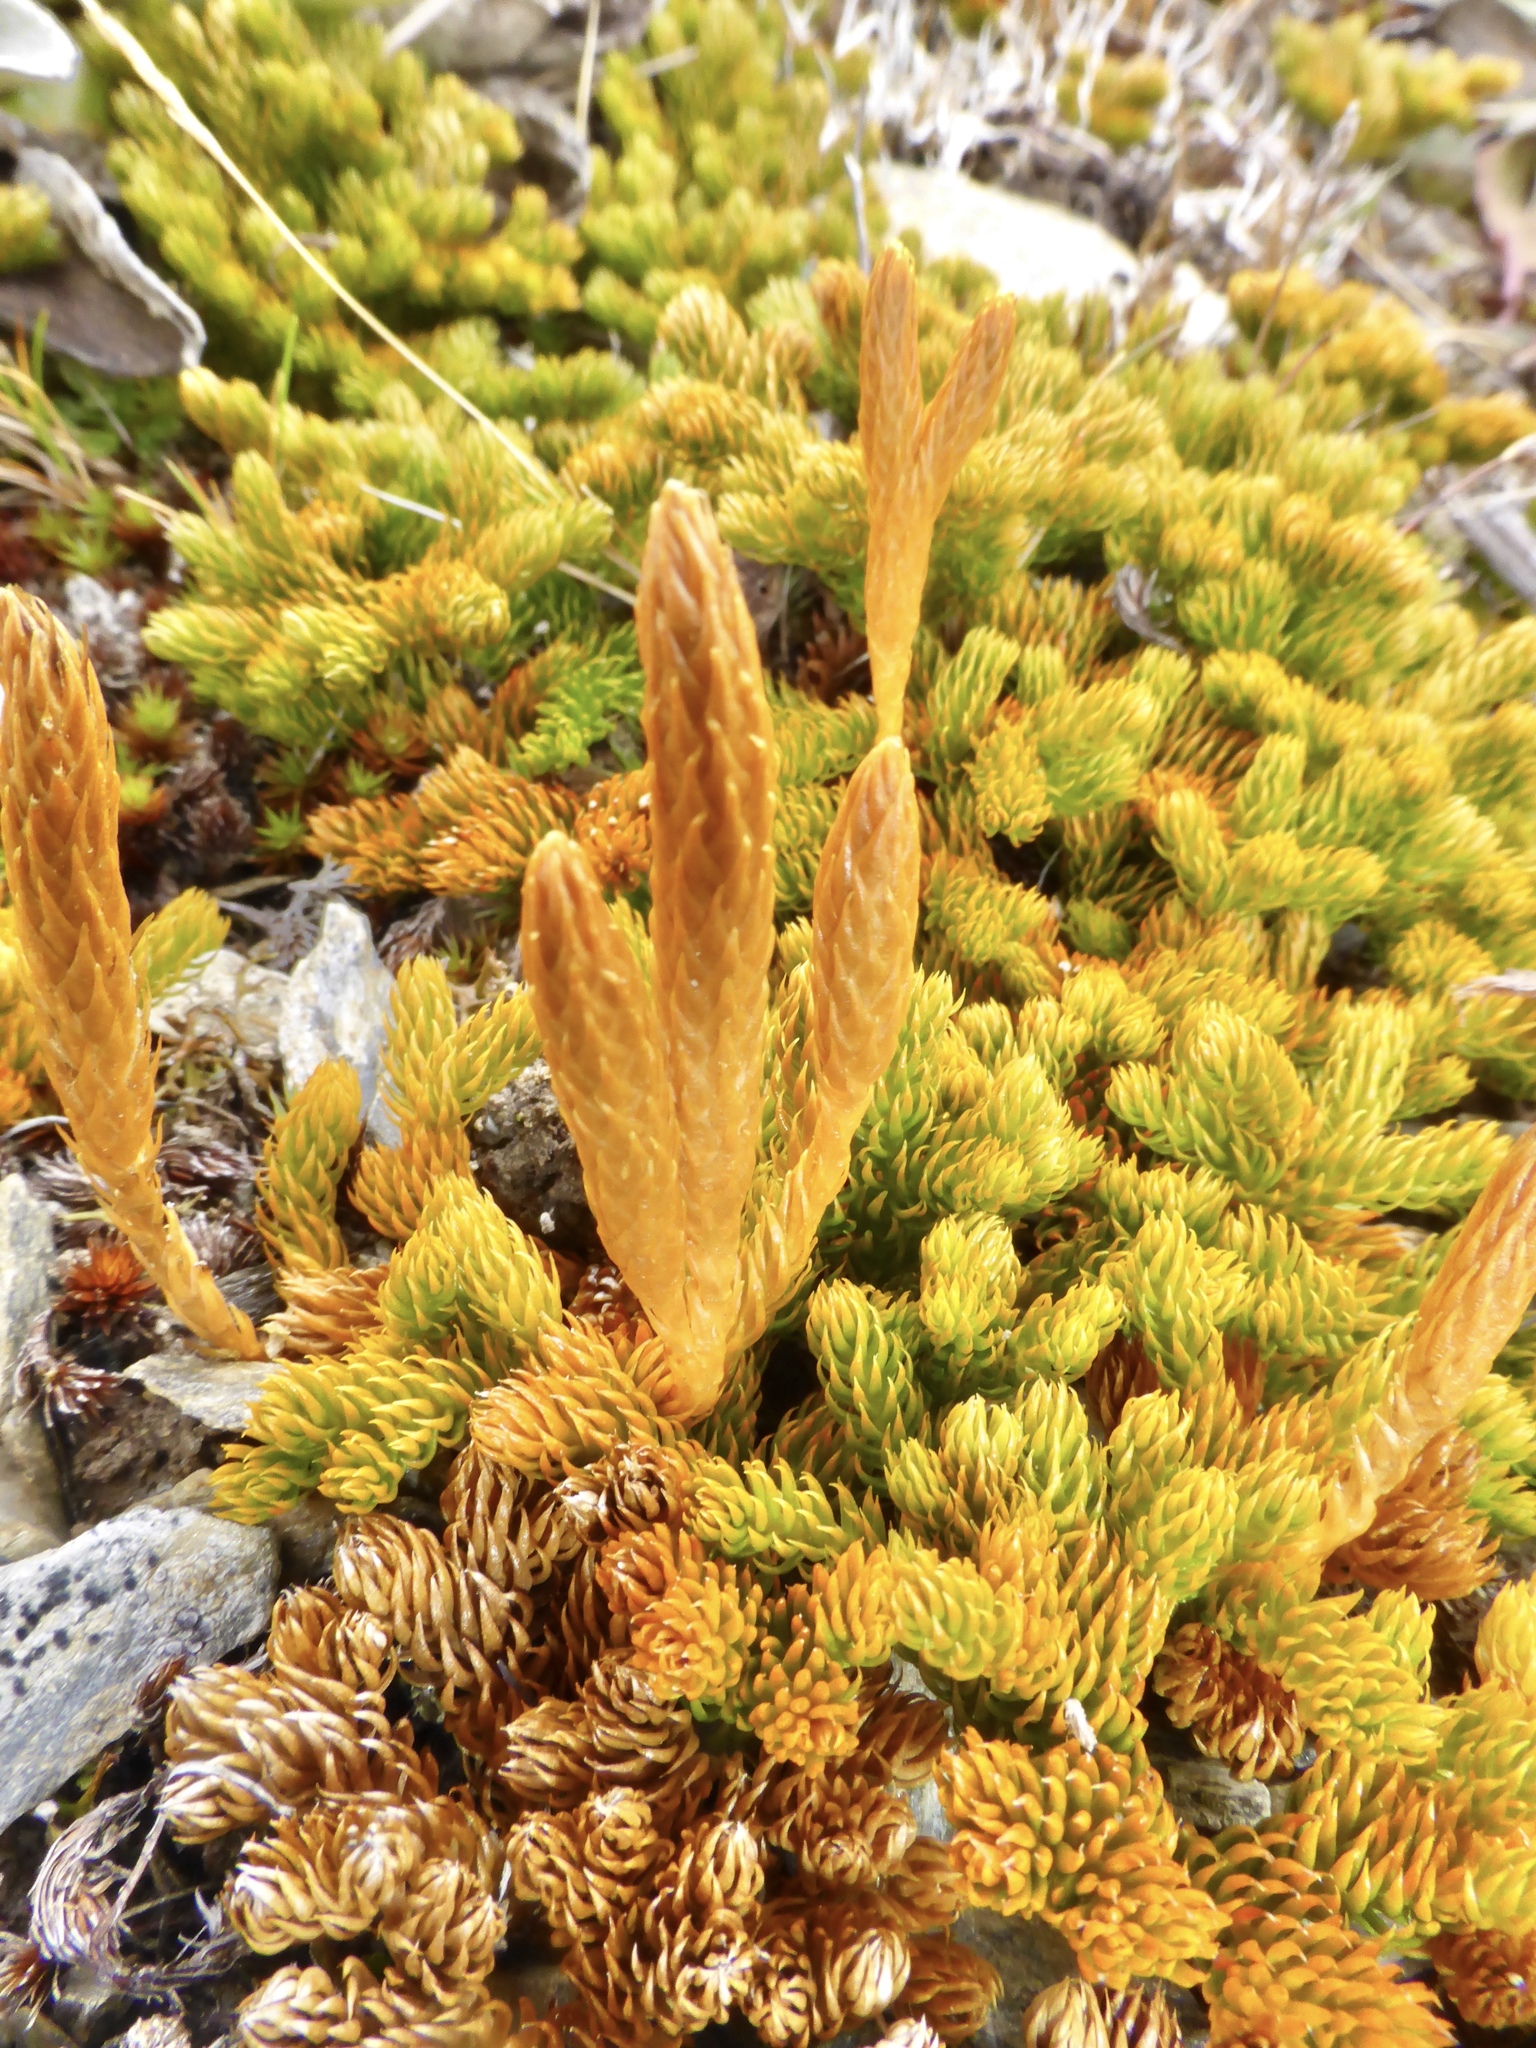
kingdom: Plantae
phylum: Tracheophyta
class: Lycopodiopsida
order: Lycopodiales
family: Lycopodiaceae
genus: Austrolycopodium
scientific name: Austrolycopodium fastigiatum
